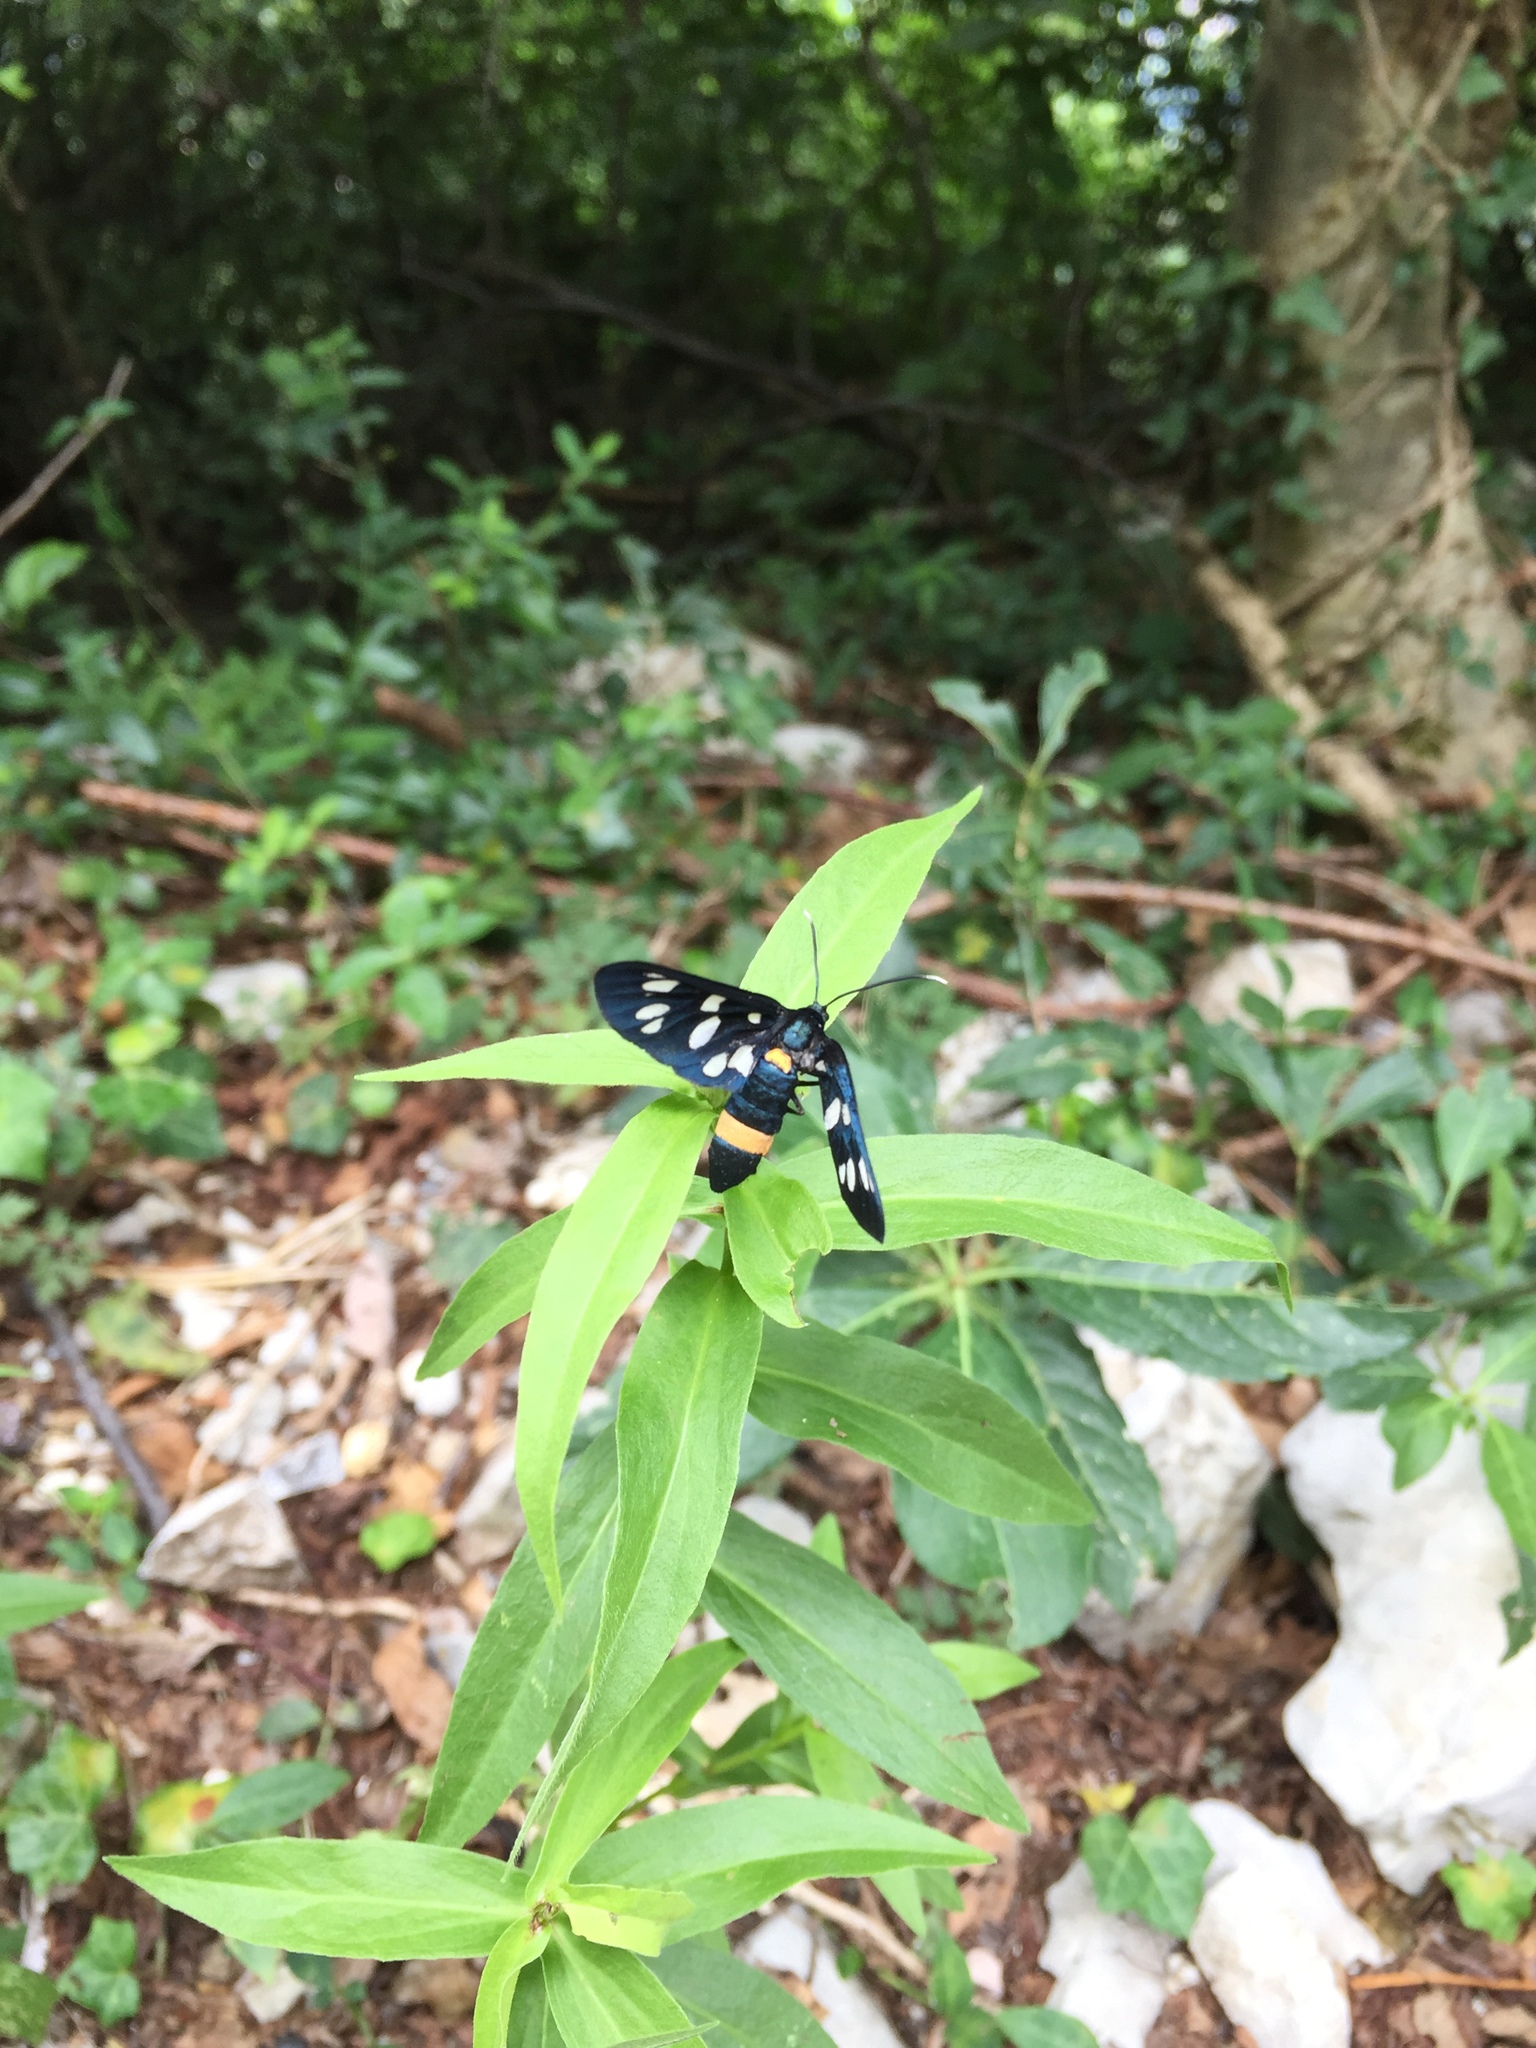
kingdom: Animalia
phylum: Arthropoda
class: Insecta
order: Lepidoptera
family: Erebidae
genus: Amata
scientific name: Amata phegea
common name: Nine-spotted
